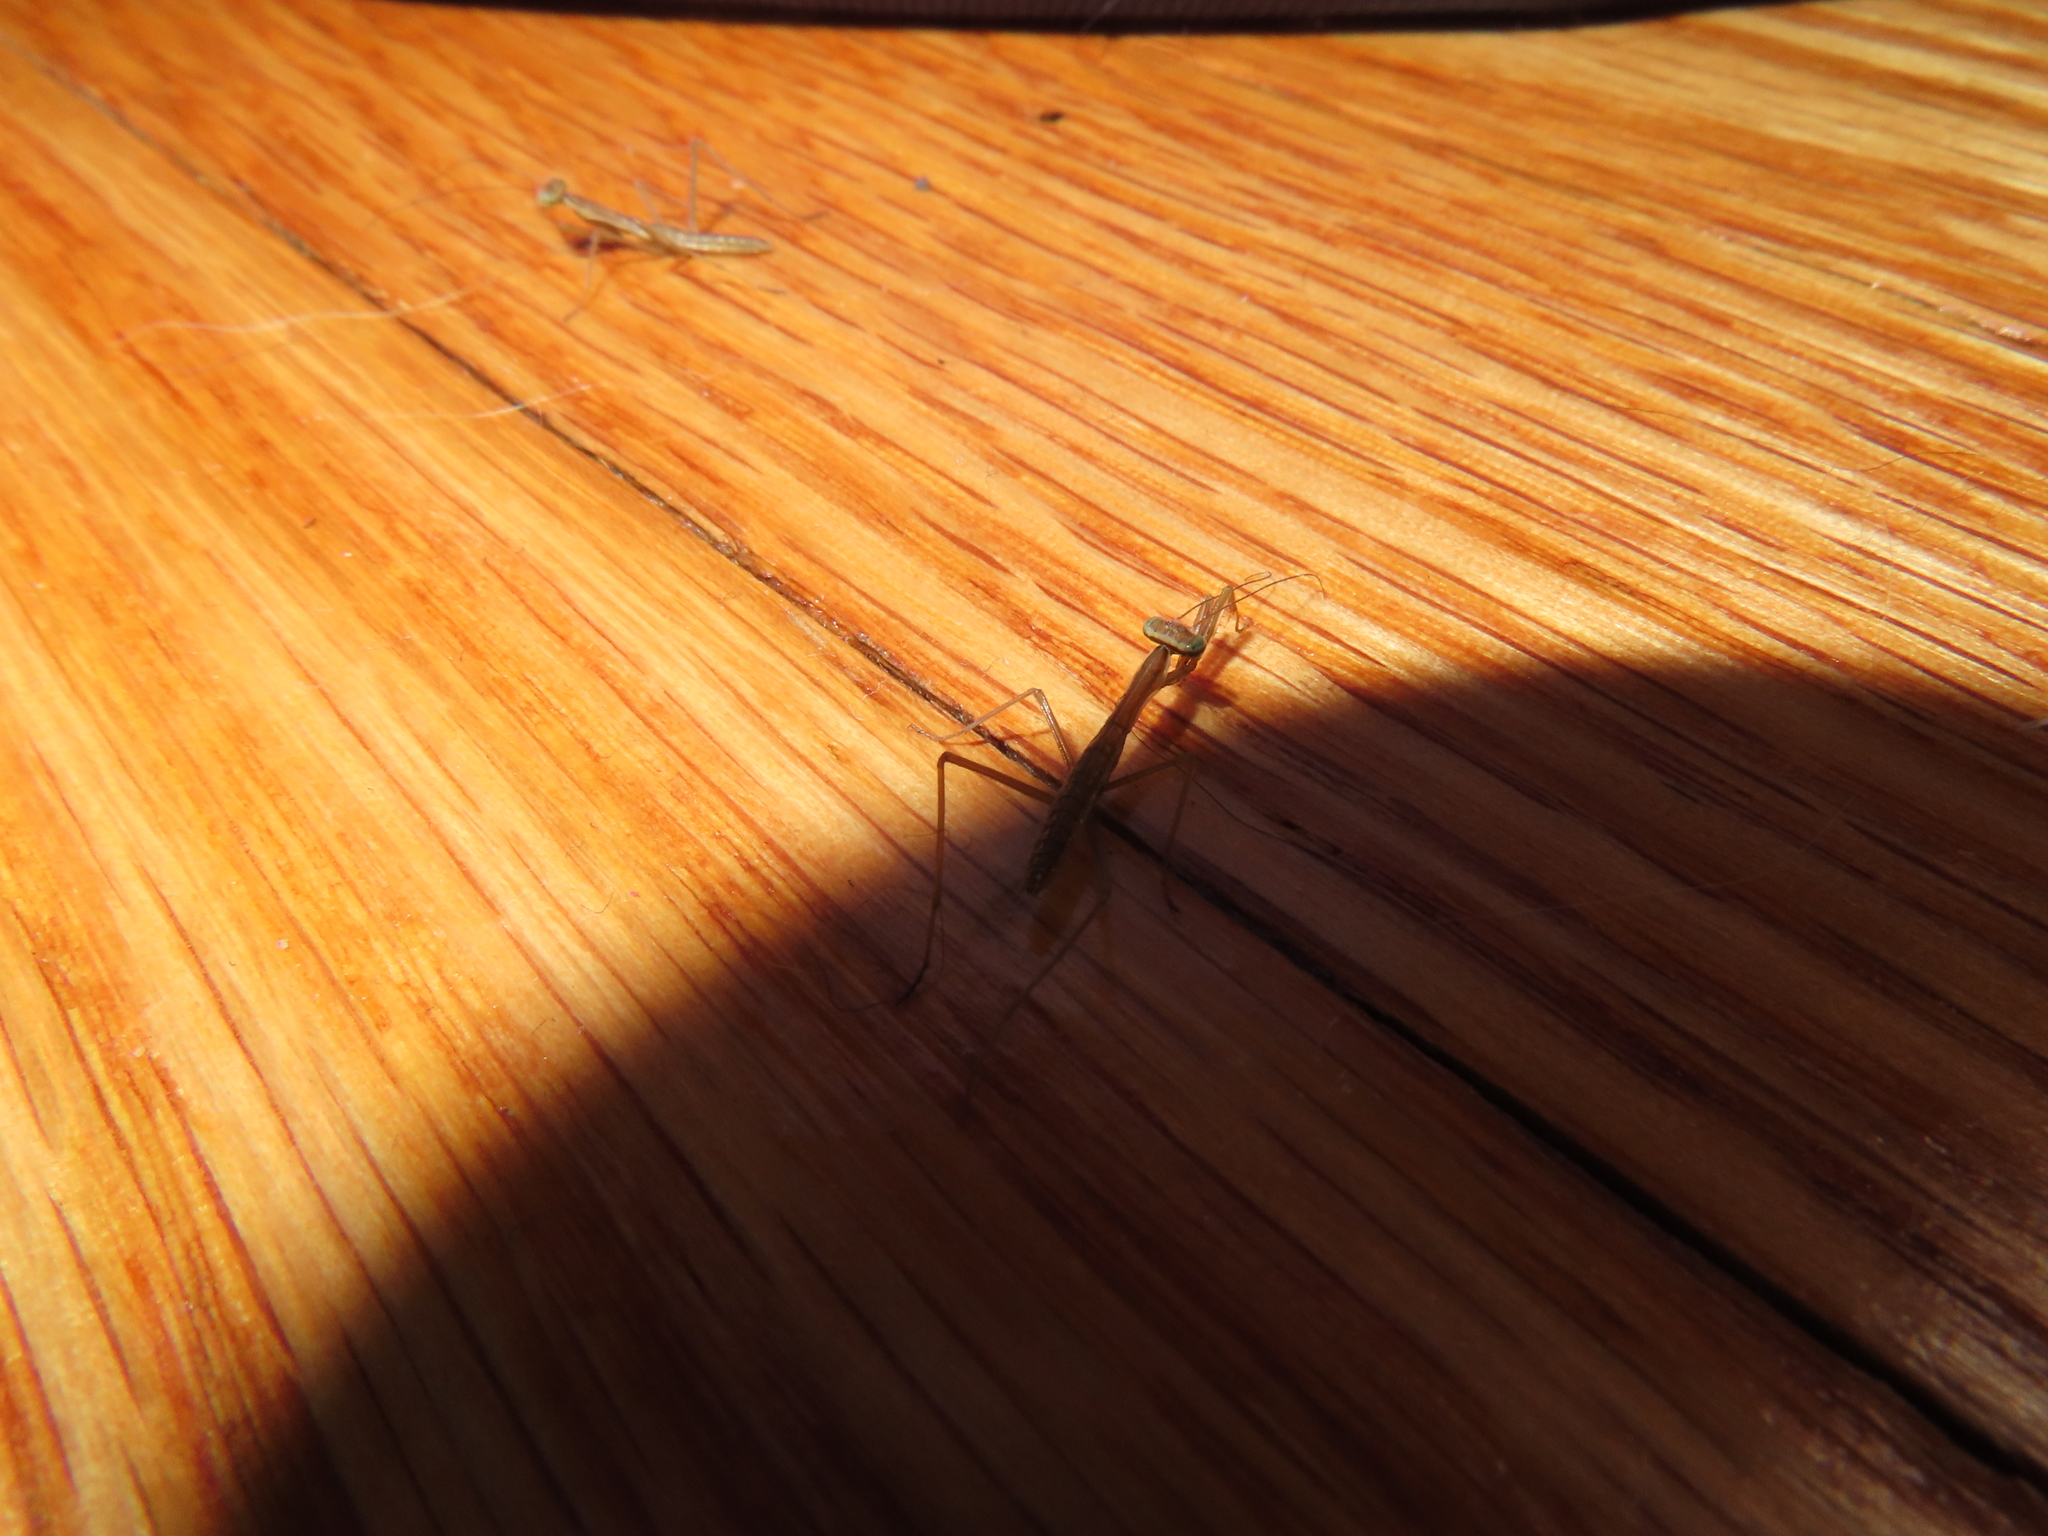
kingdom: Animalia
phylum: Arthropoda
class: Insecta
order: Mantodea
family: Mantidae
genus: Tenodera
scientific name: Tenodera sinensis
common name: Chinese mantis
